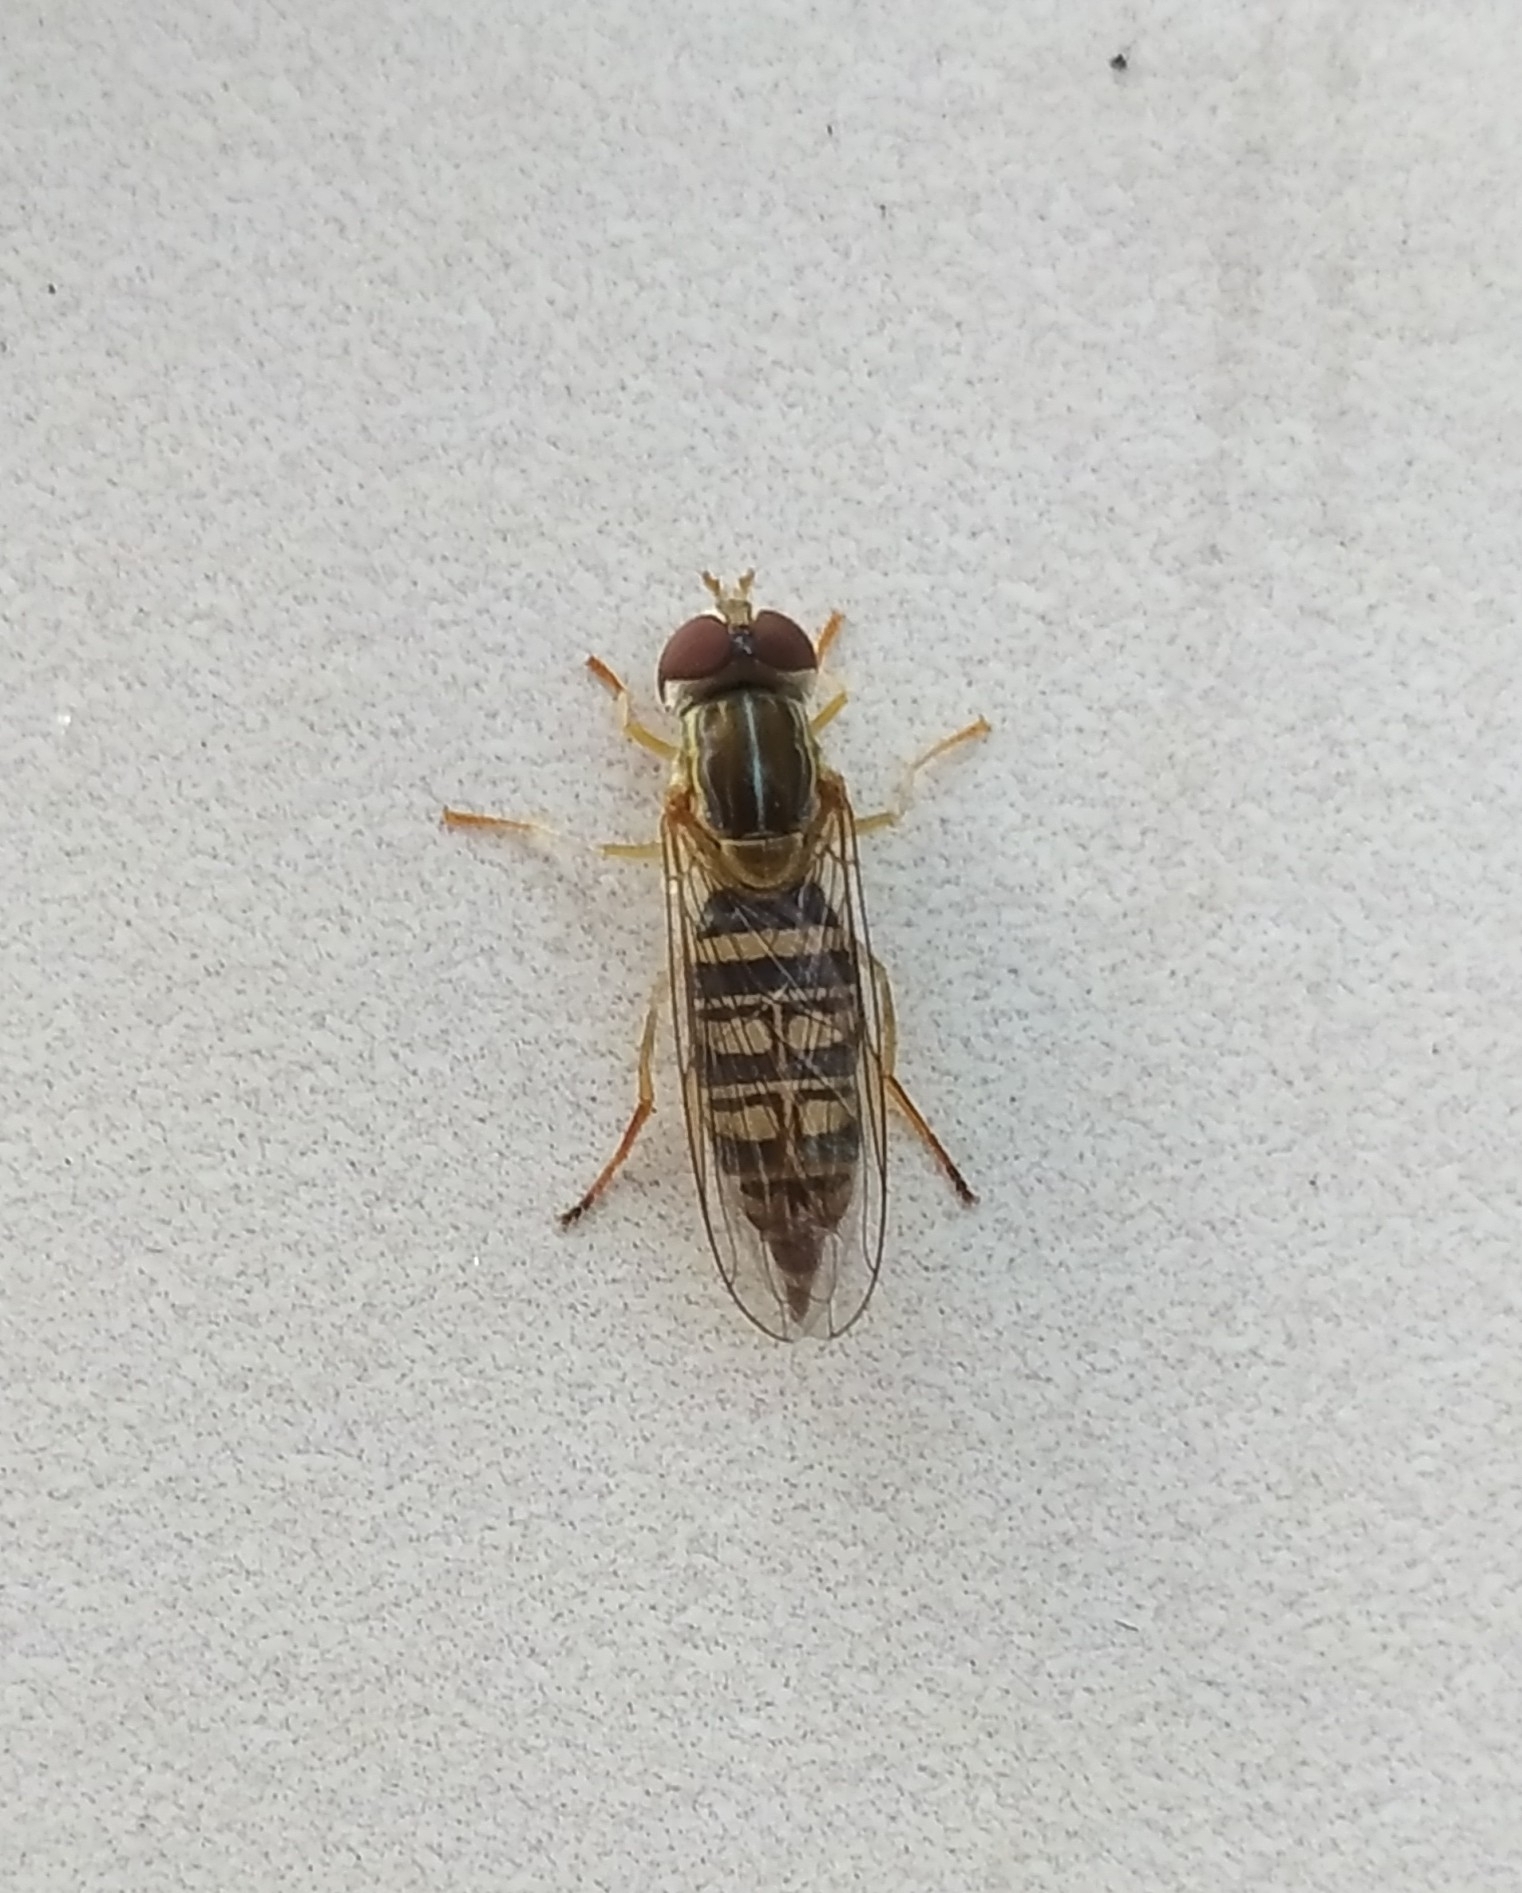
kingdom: Animalia
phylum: Arthropoda
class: Insecta
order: Diptera
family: Syrphidae
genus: Toxomerus
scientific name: Toxomerus politus
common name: Maize calligrapher
